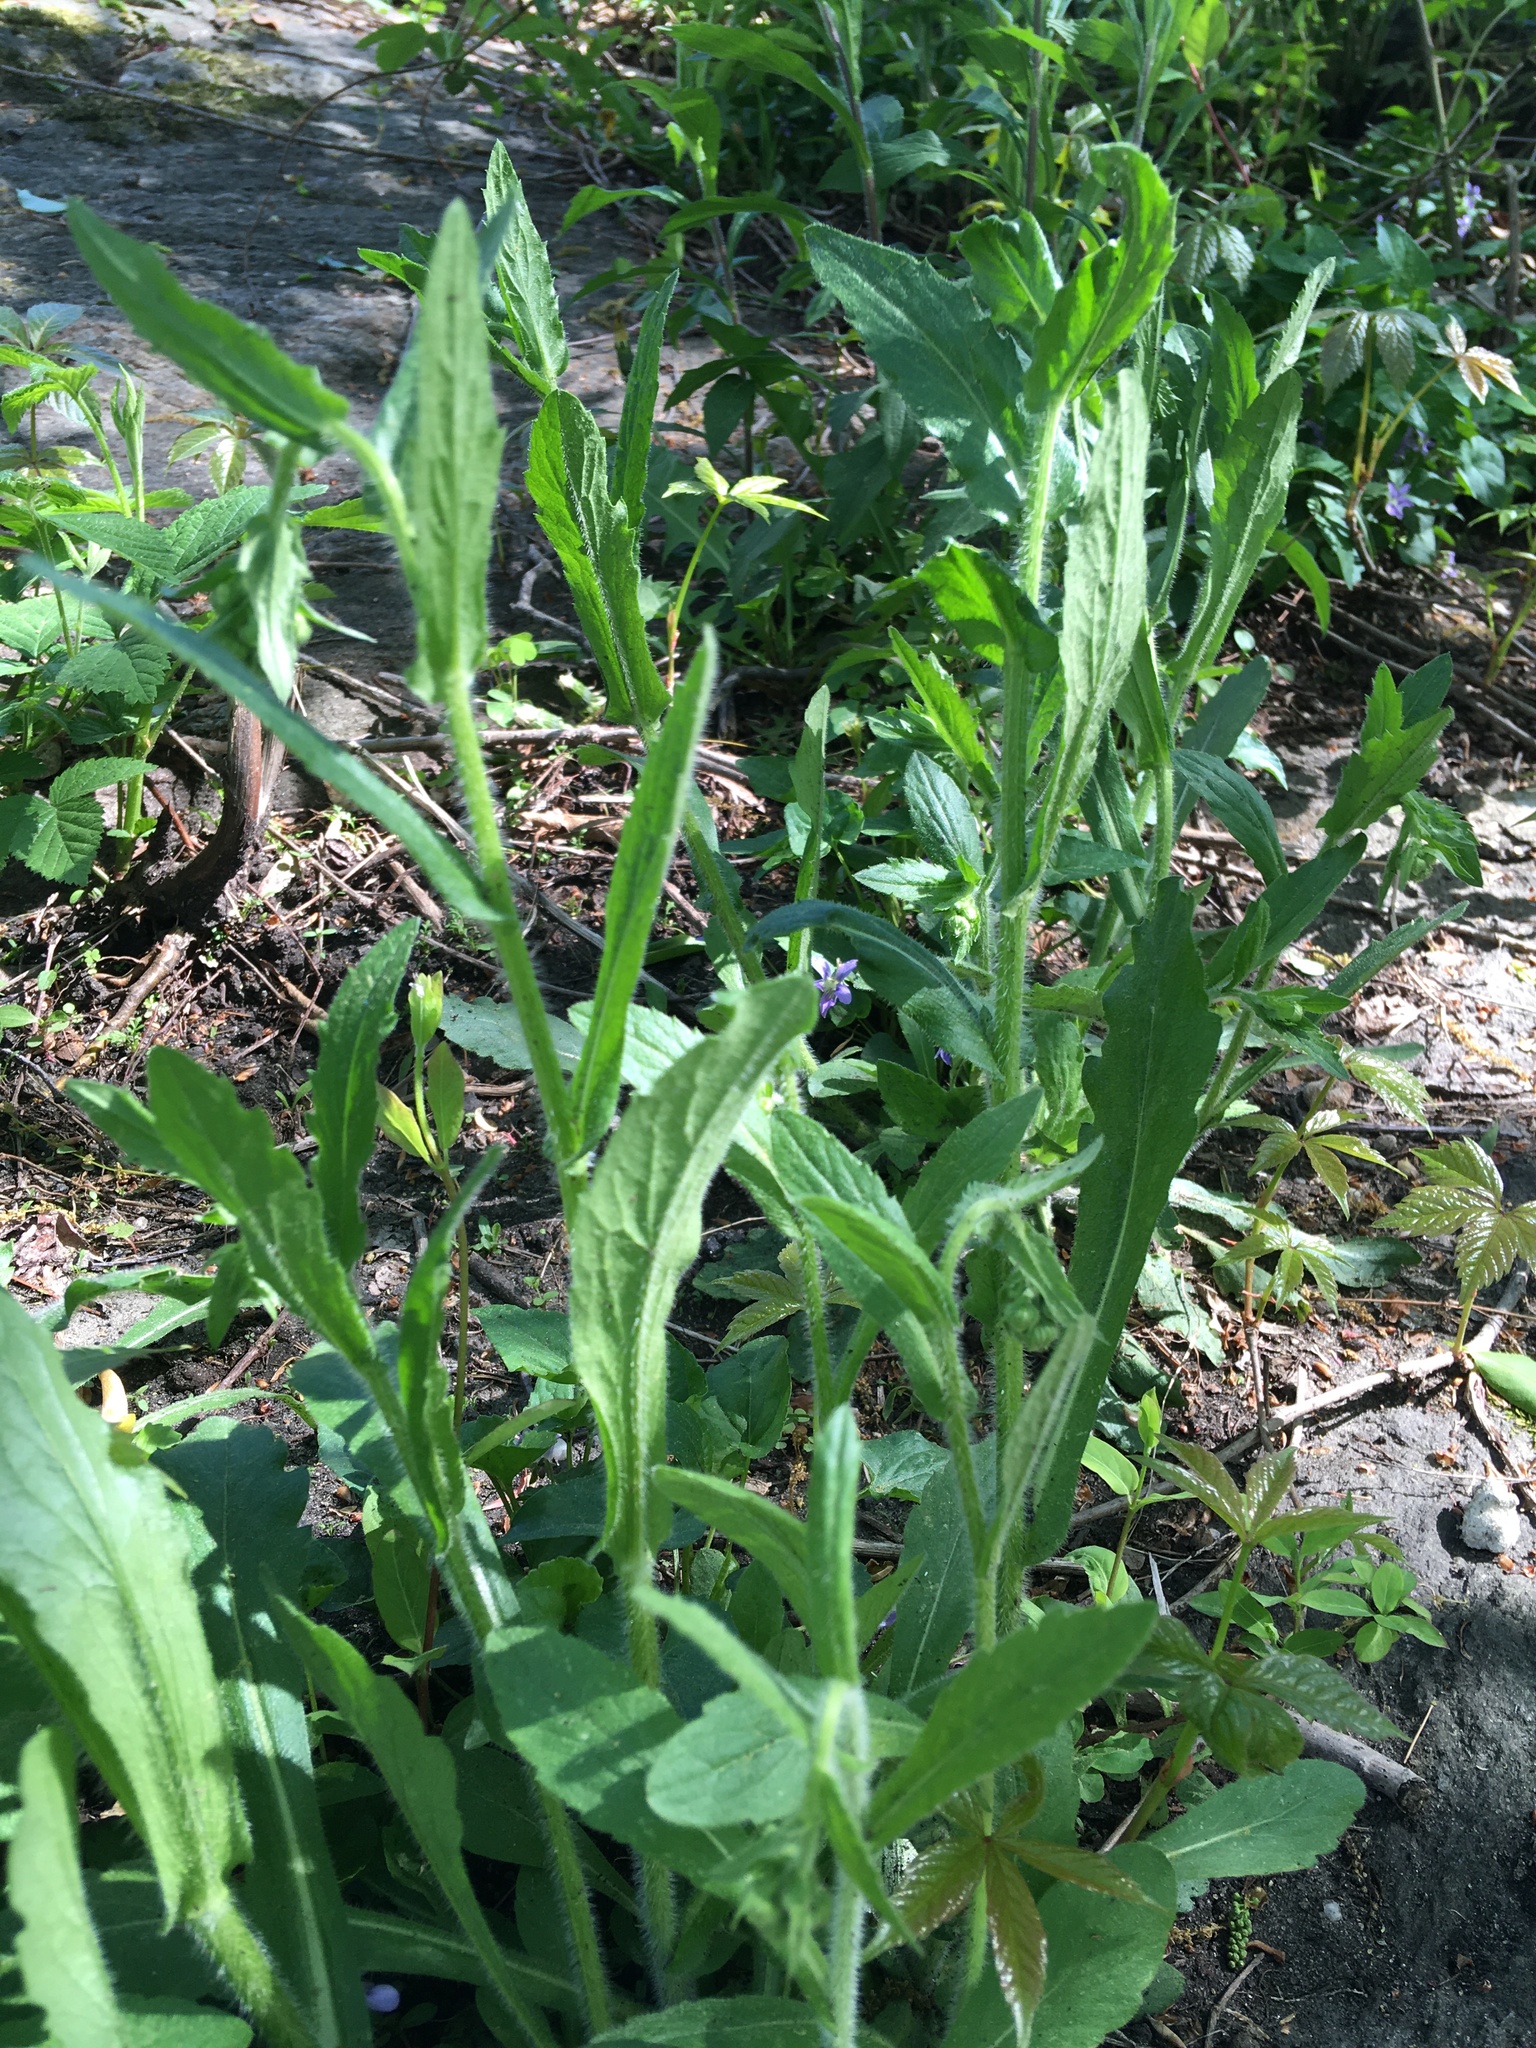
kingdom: Plantae
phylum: Tracheophyta
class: Magnoliopsida
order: Asterales
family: Asteraceae
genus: Erigeron
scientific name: Erigeron philadelphicus
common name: Robin's-plantain
